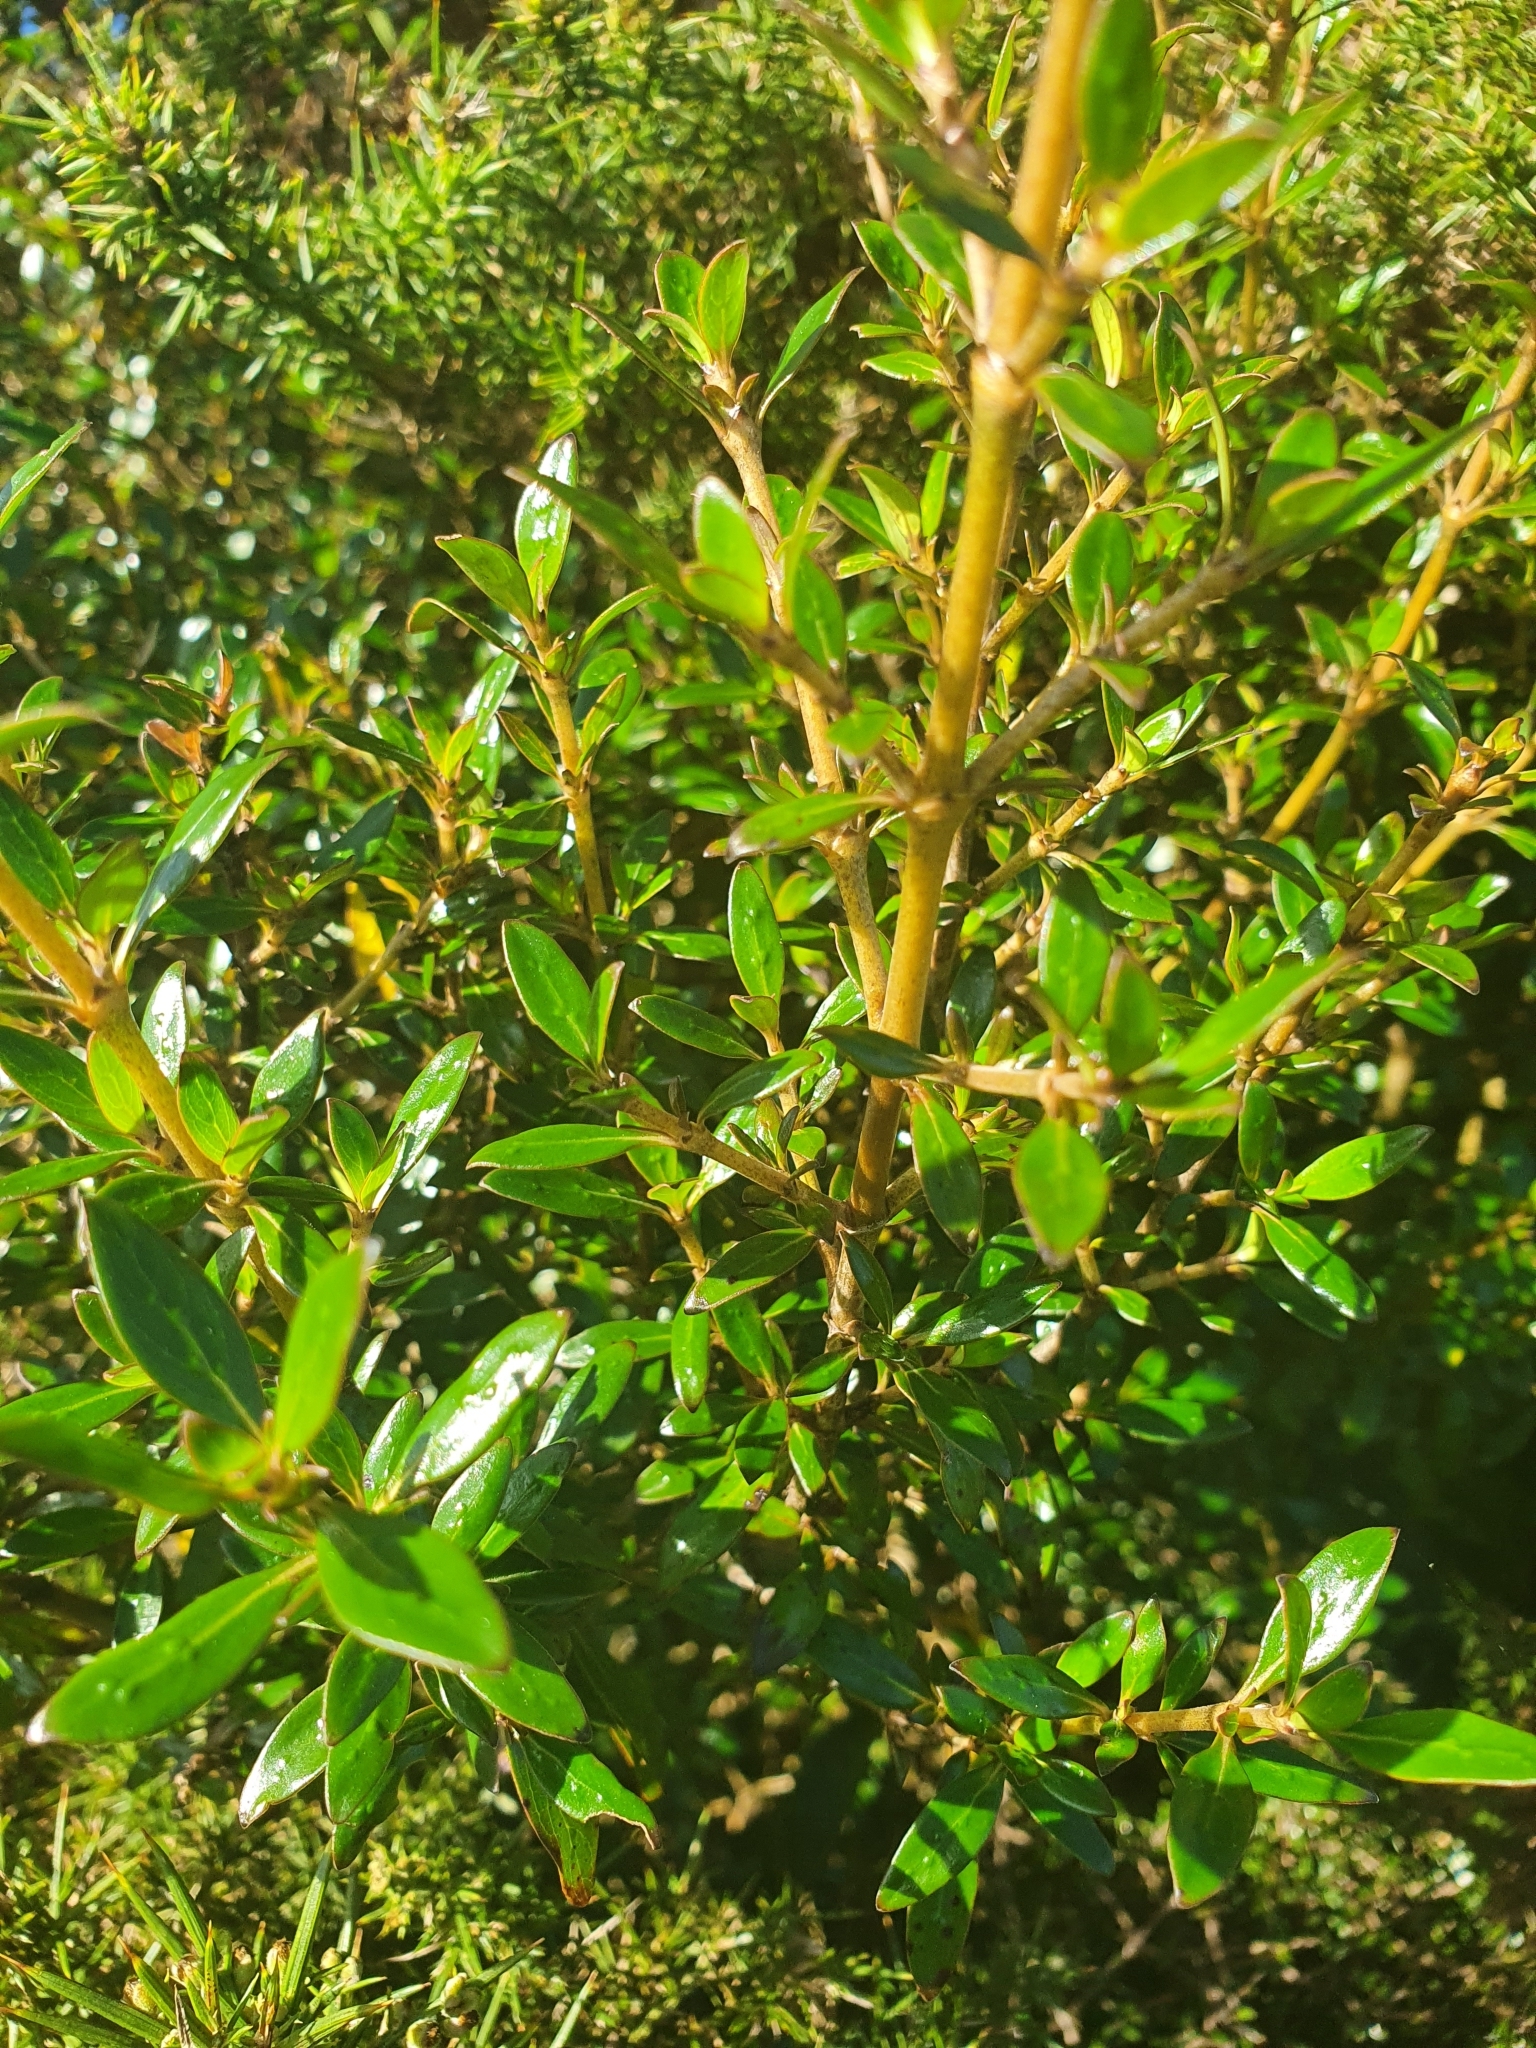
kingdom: Plantae
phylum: Tracheophyta
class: Magnoliopsida
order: Gentianales
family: Rubiaceae
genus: Coprosma
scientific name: Coprosma cunninghamii
